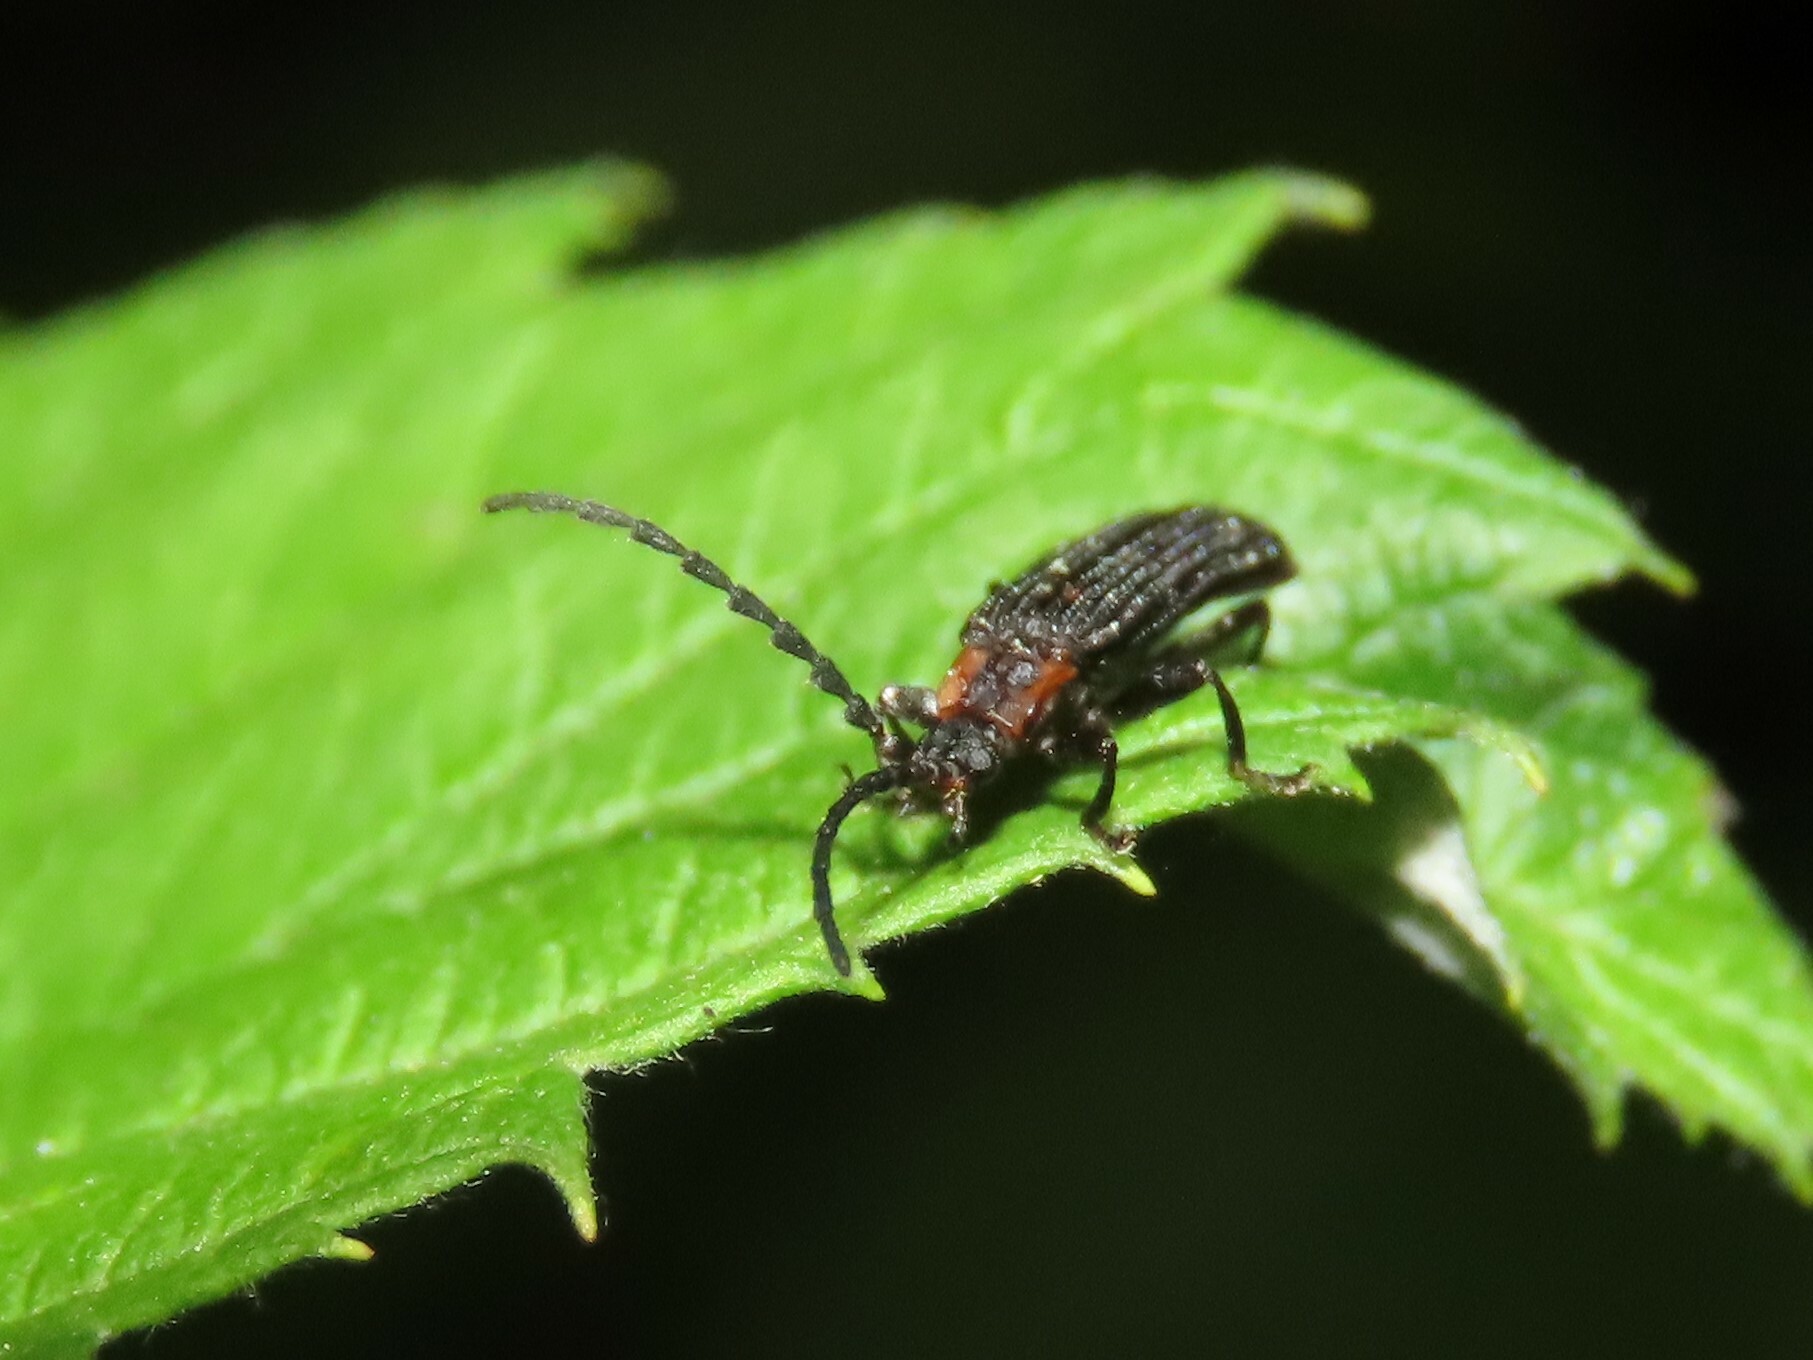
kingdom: Animalia
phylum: Arthropoda
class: Insecta
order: Coleoptera
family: Lycidae
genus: Erotides
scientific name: Erotides sculptilis
